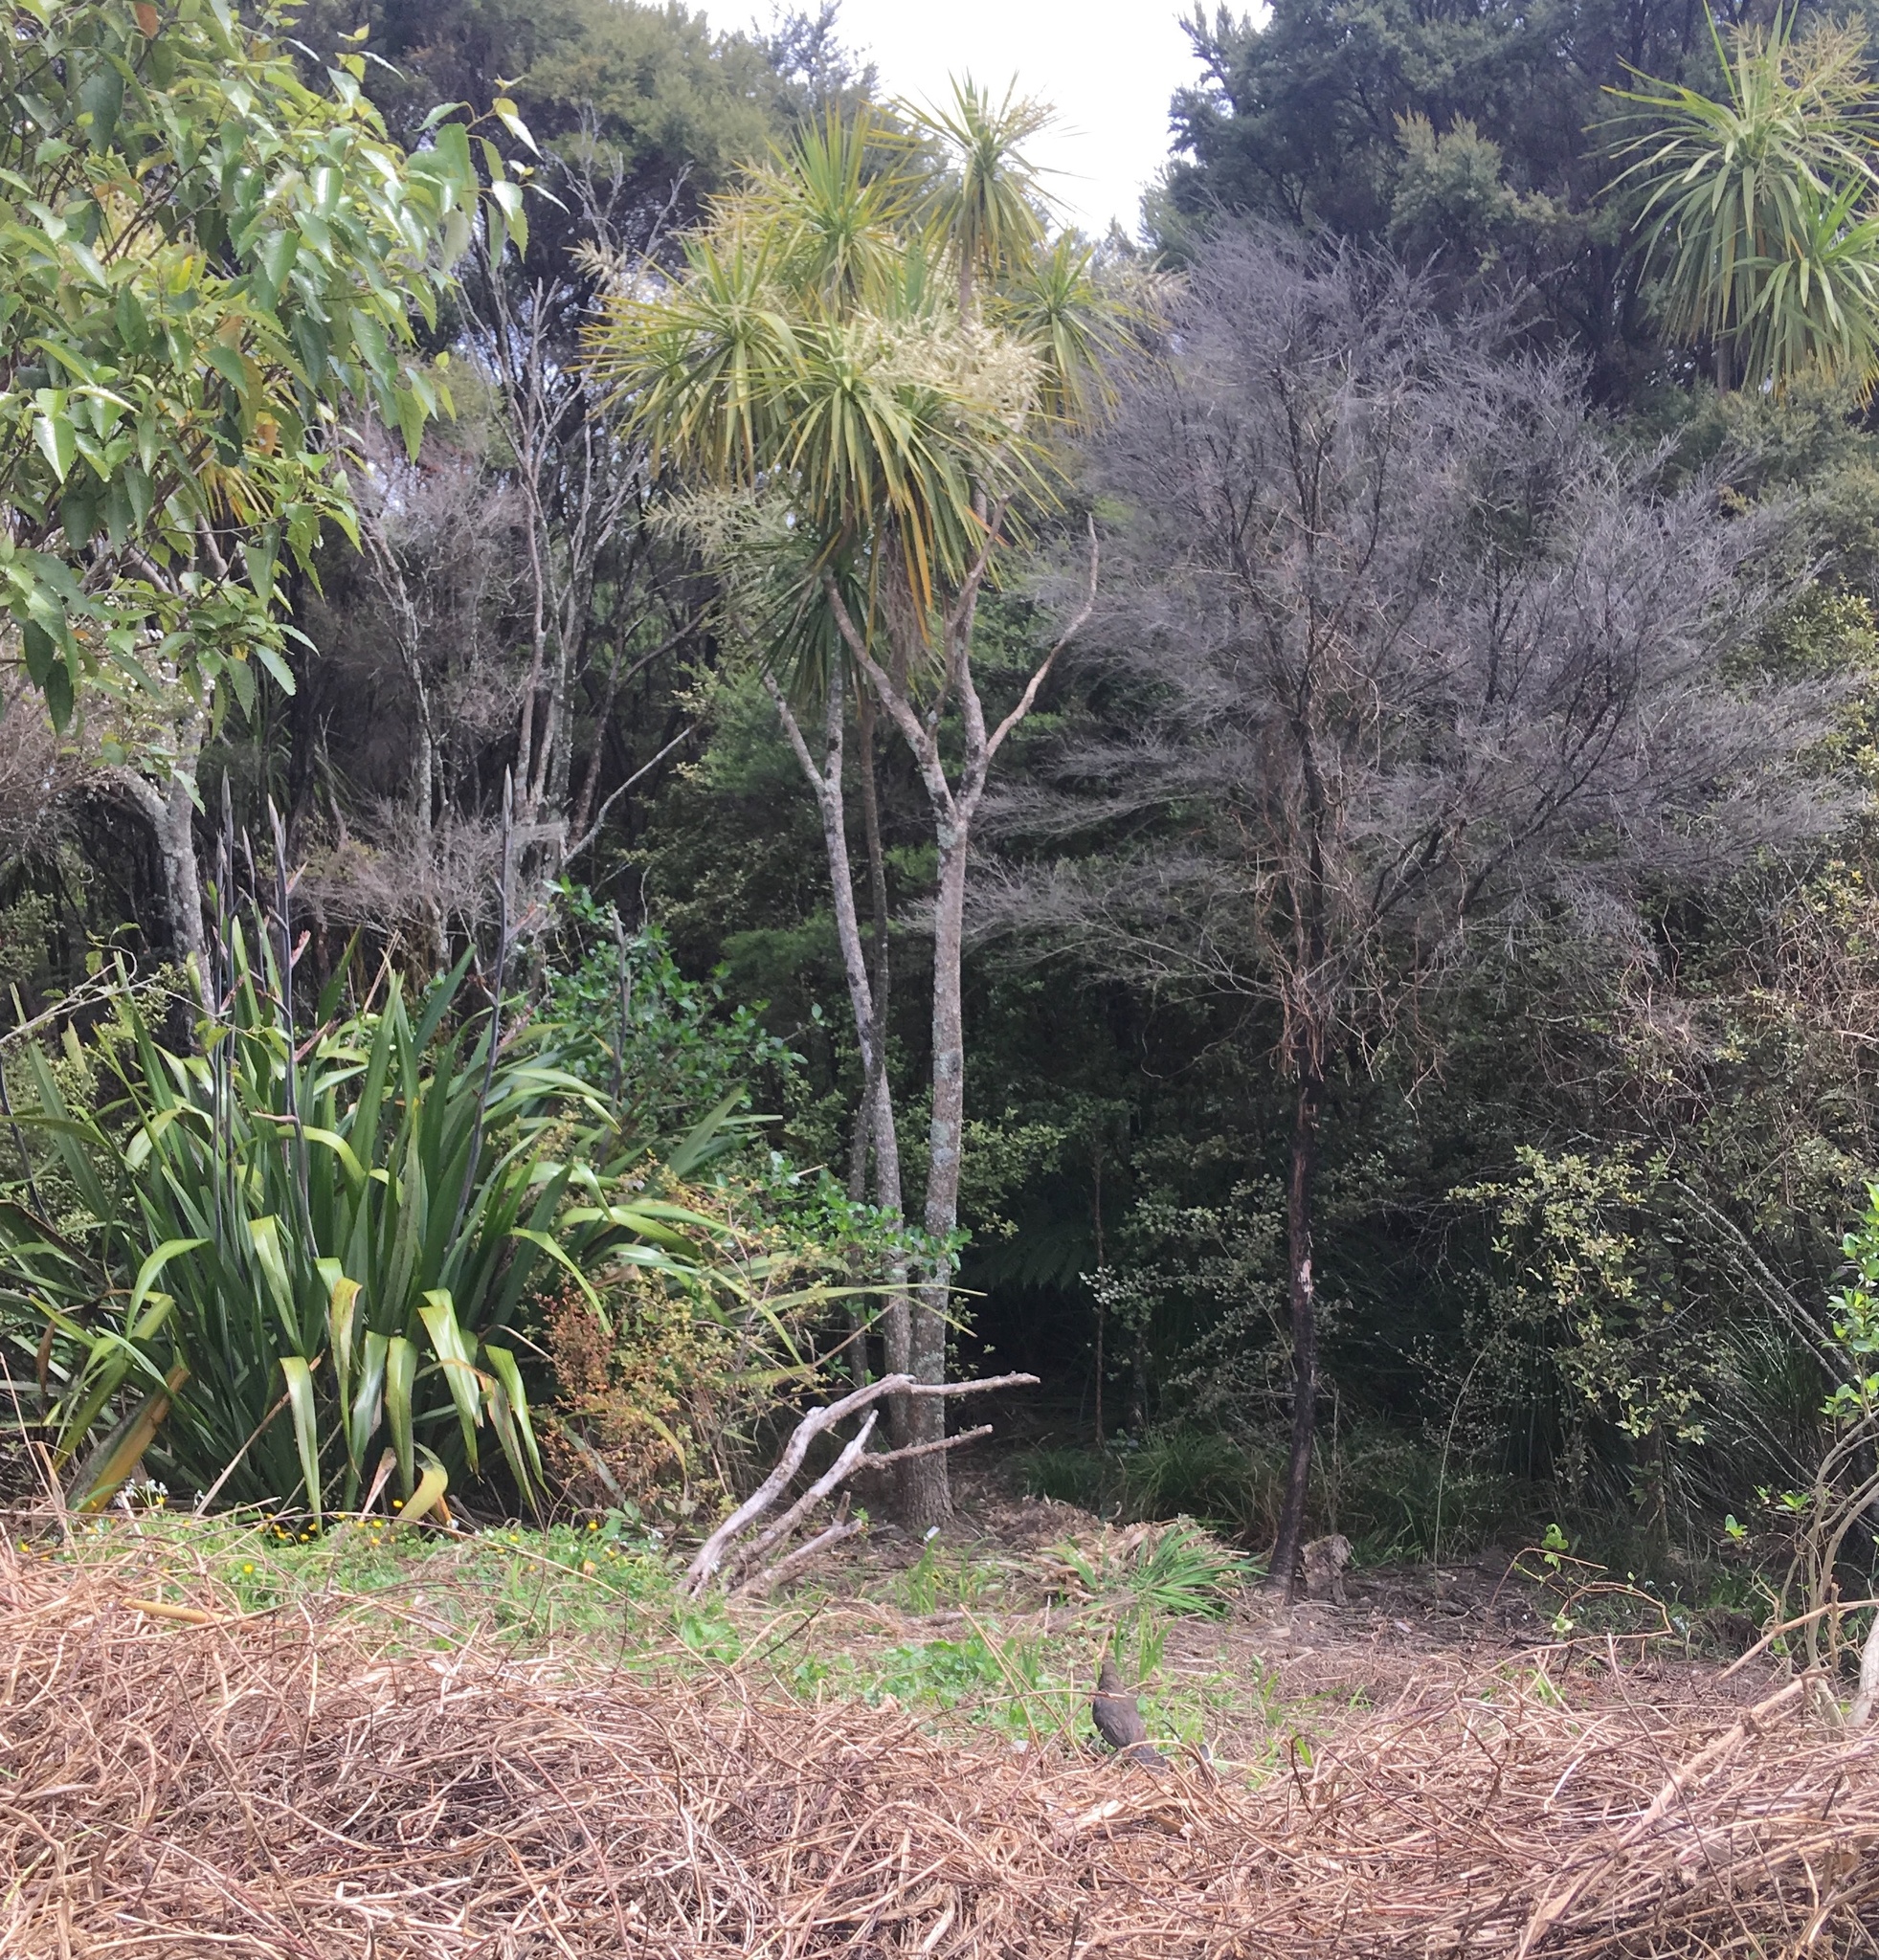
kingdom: Plantae
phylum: Tracheophyta
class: Liliopsida
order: Asparagales
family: Asparagaceae
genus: Cordyline
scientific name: Cordyline australis
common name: Cabbage-palm
